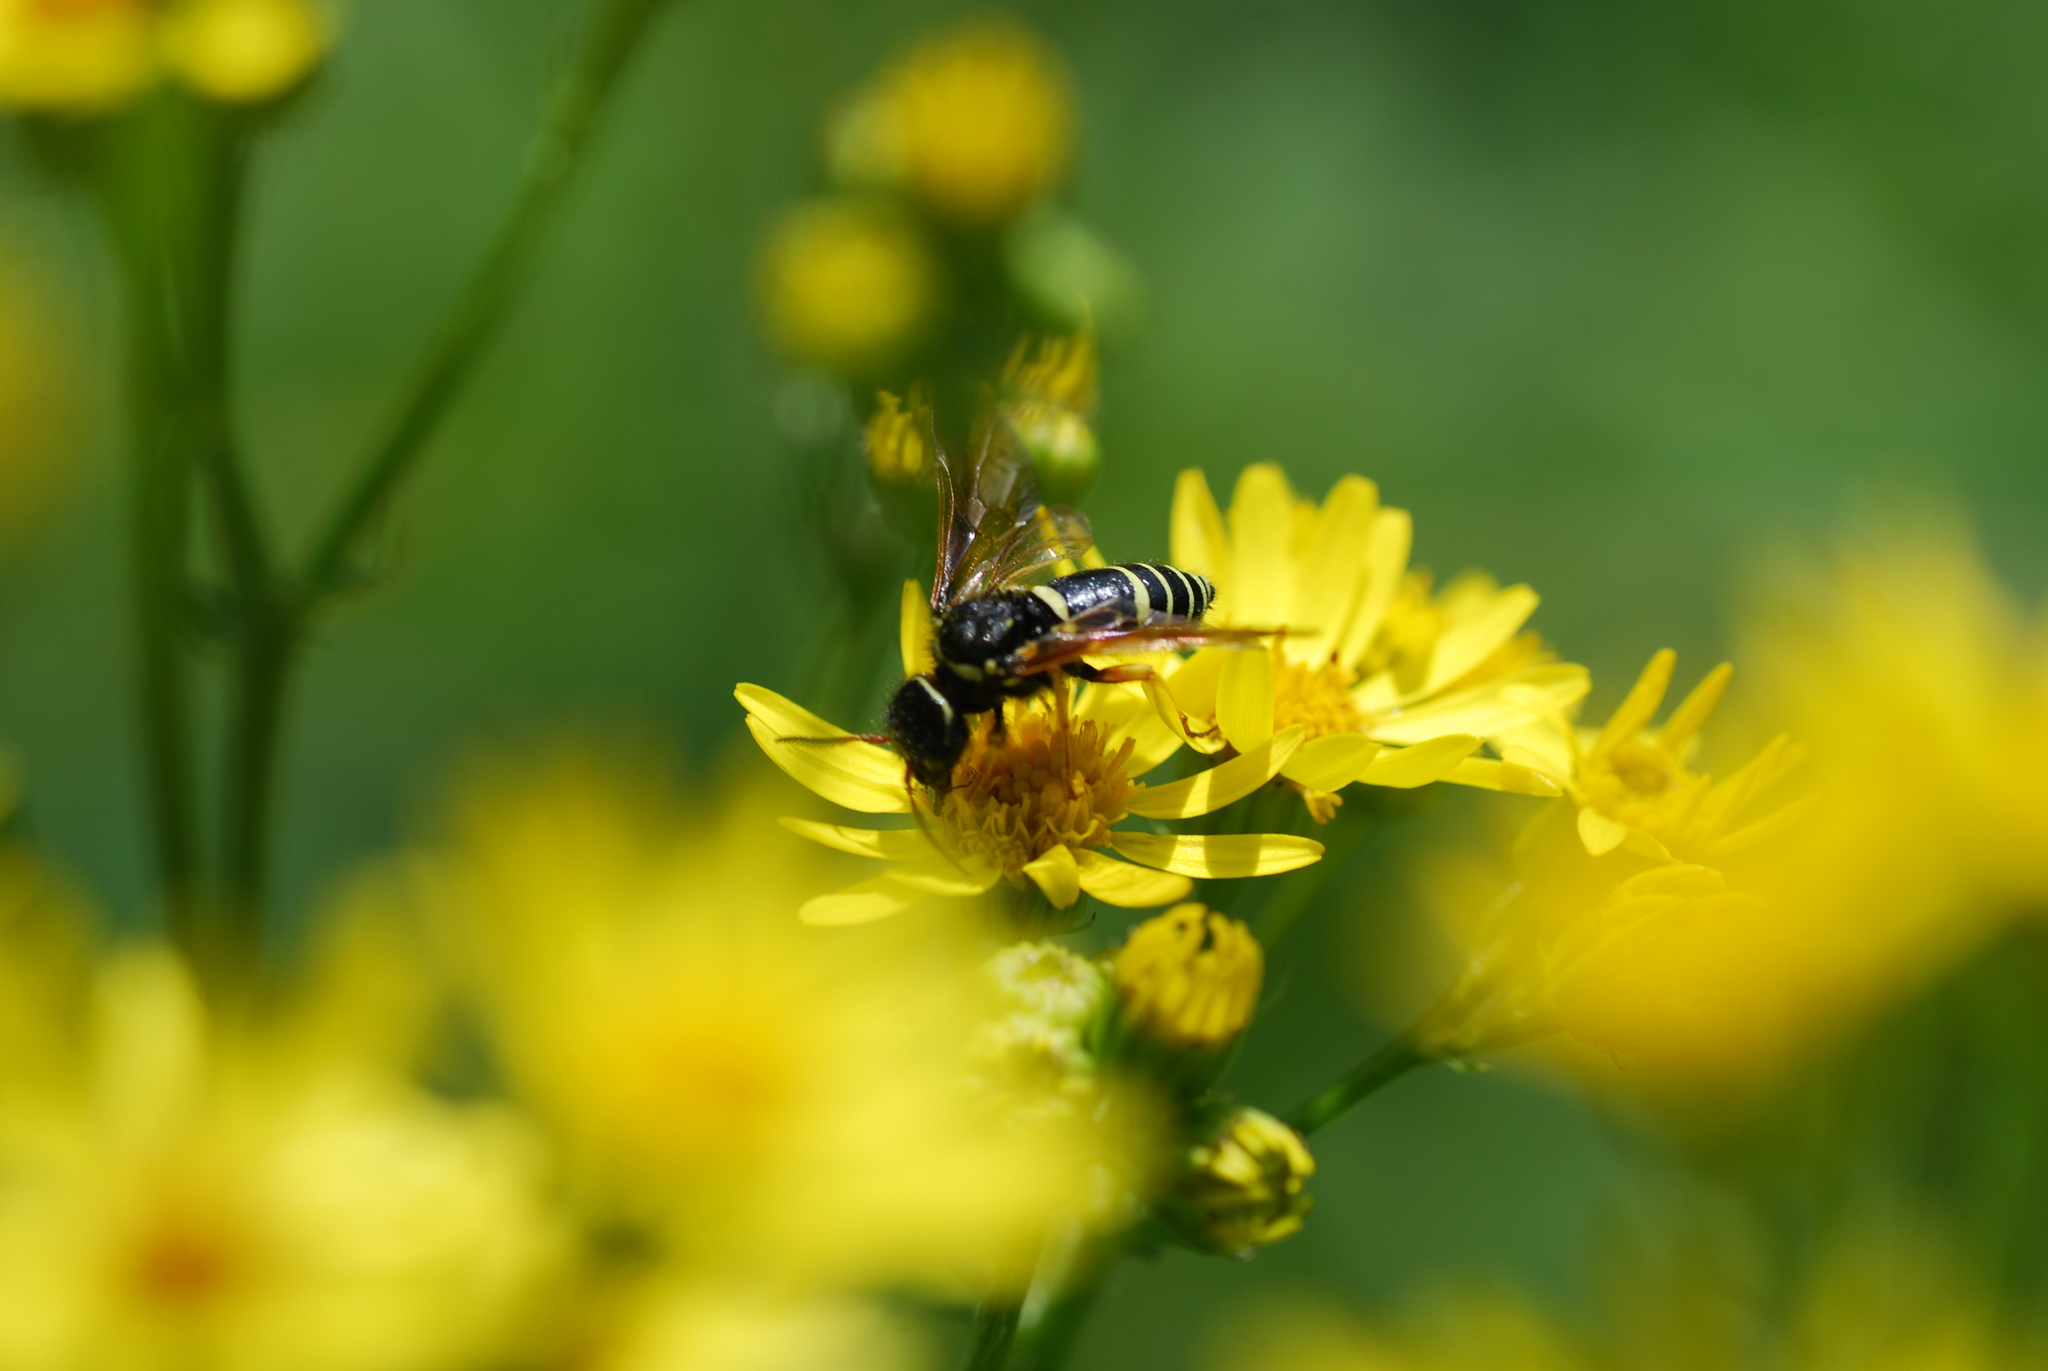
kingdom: Animalia
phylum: Arthropoda
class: Insecta
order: Hymenoptera
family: Megalodontesidae
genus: Megalodontes
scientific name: Megalodontes
